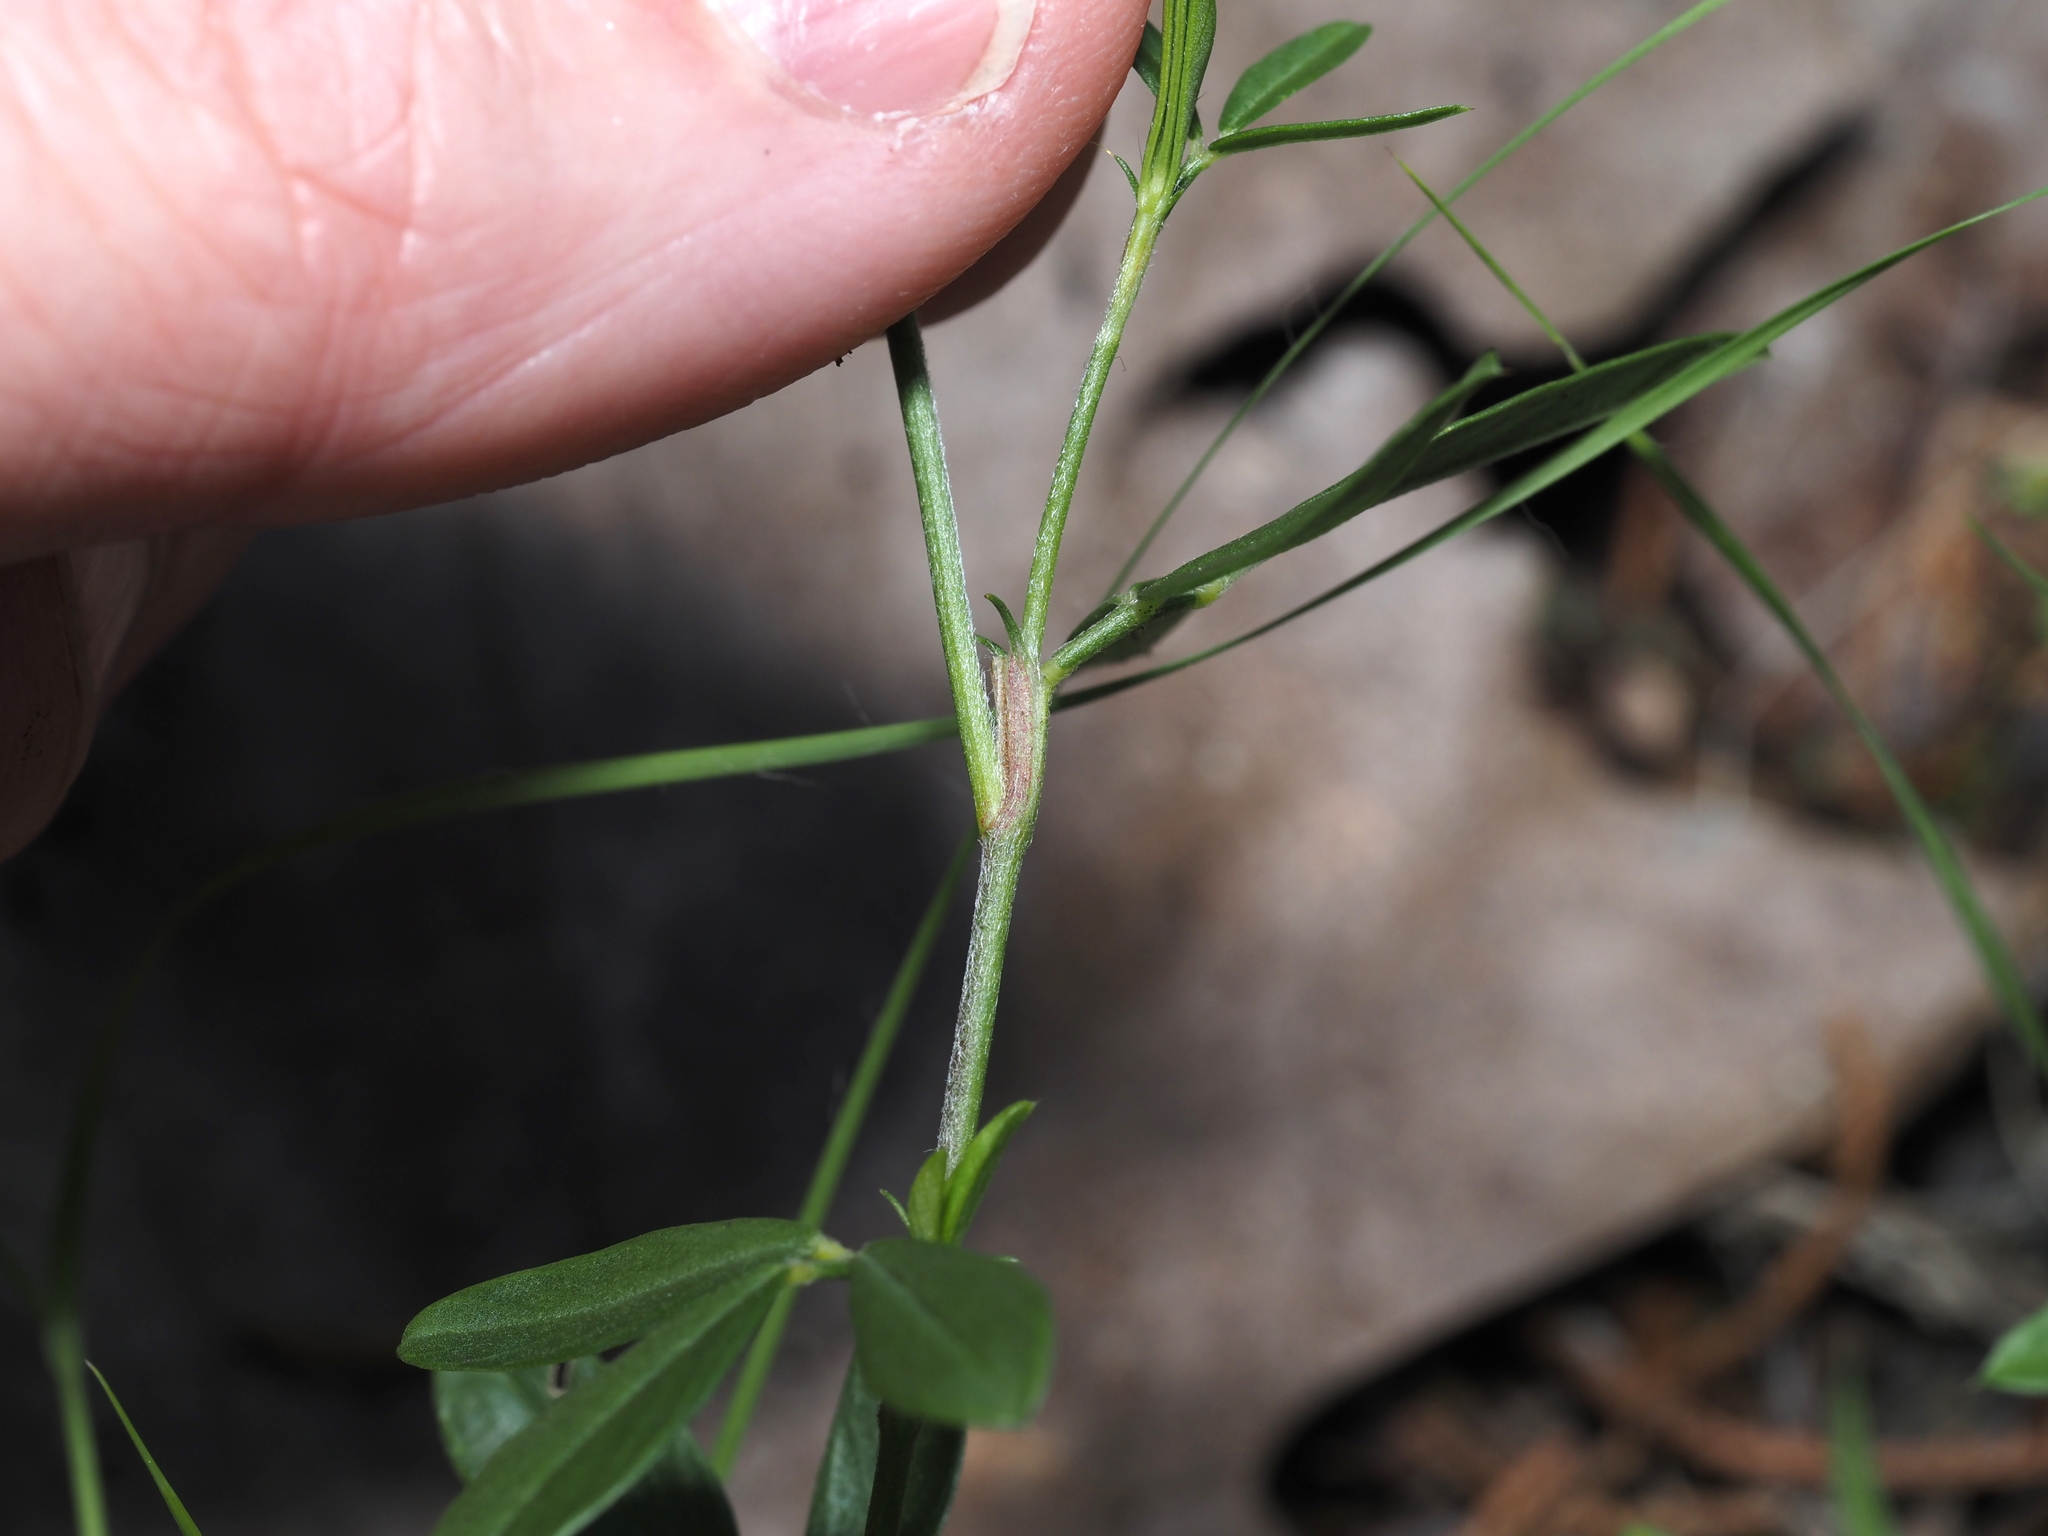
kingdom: Plantae
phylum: Tracheophyta
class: Magnoliopsida
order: Fabales
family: Fabaceae
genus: Stylosanthes
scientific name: Stylosanthes biflora
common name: Two-flower pencil-flower
